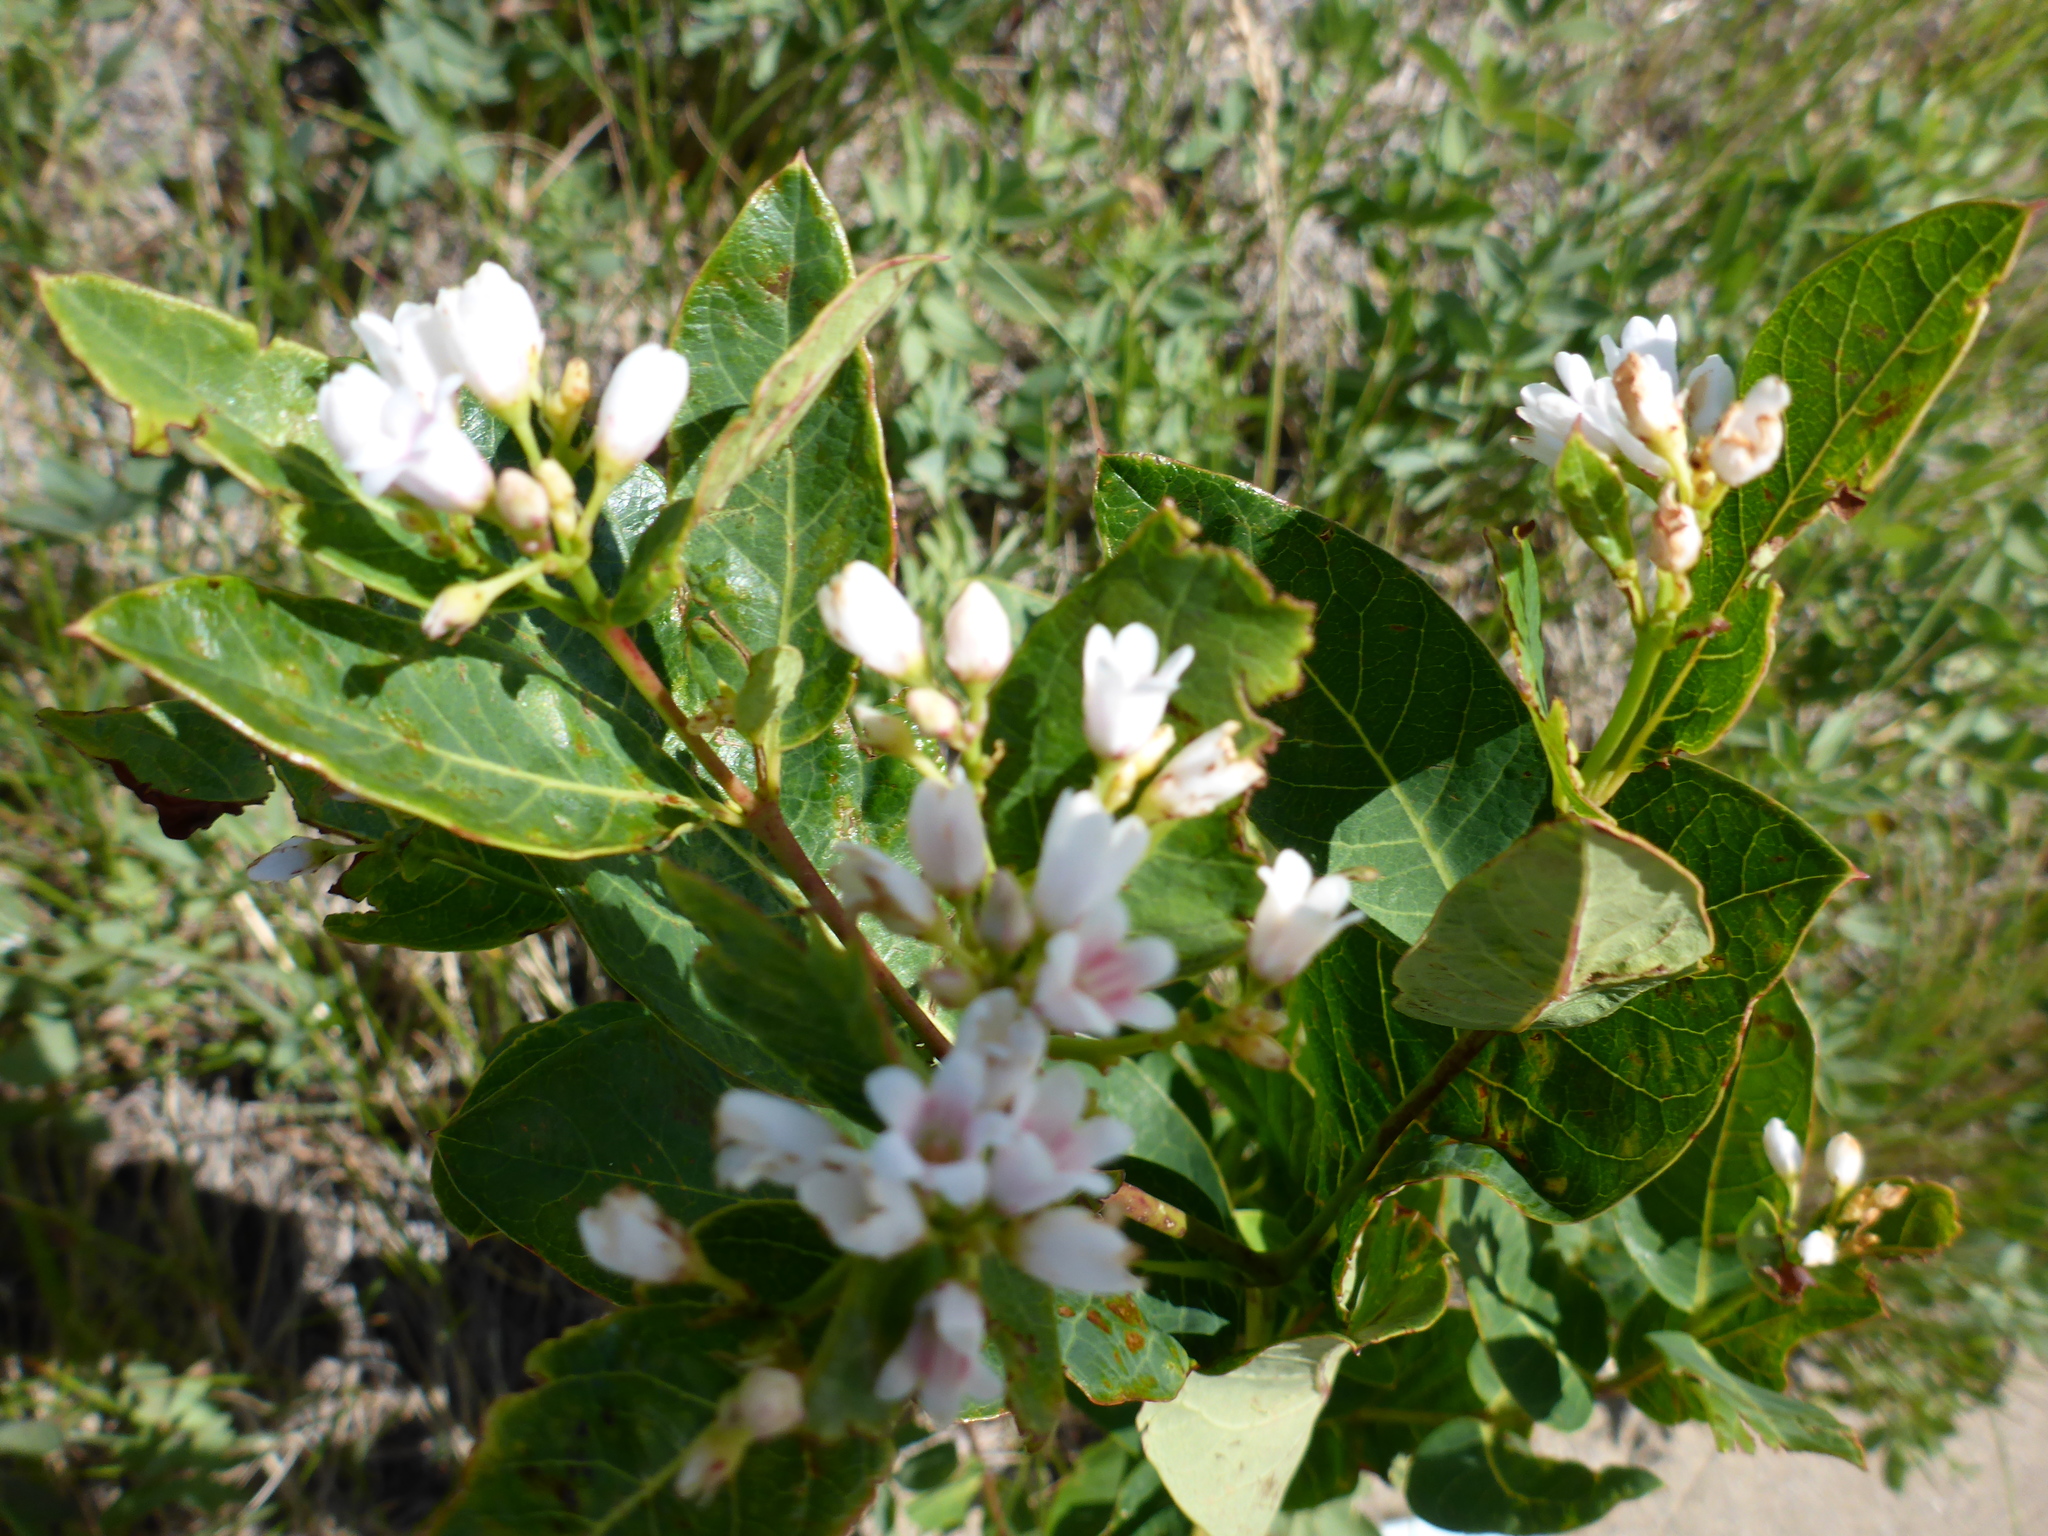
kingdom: Plantae
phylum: Tracheophyta
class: Magnoliopsida
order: Gentianales
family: Apocynaceae
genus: Apocynum
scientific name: Apocynum androsaemifolium
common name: Spreading dogbane
